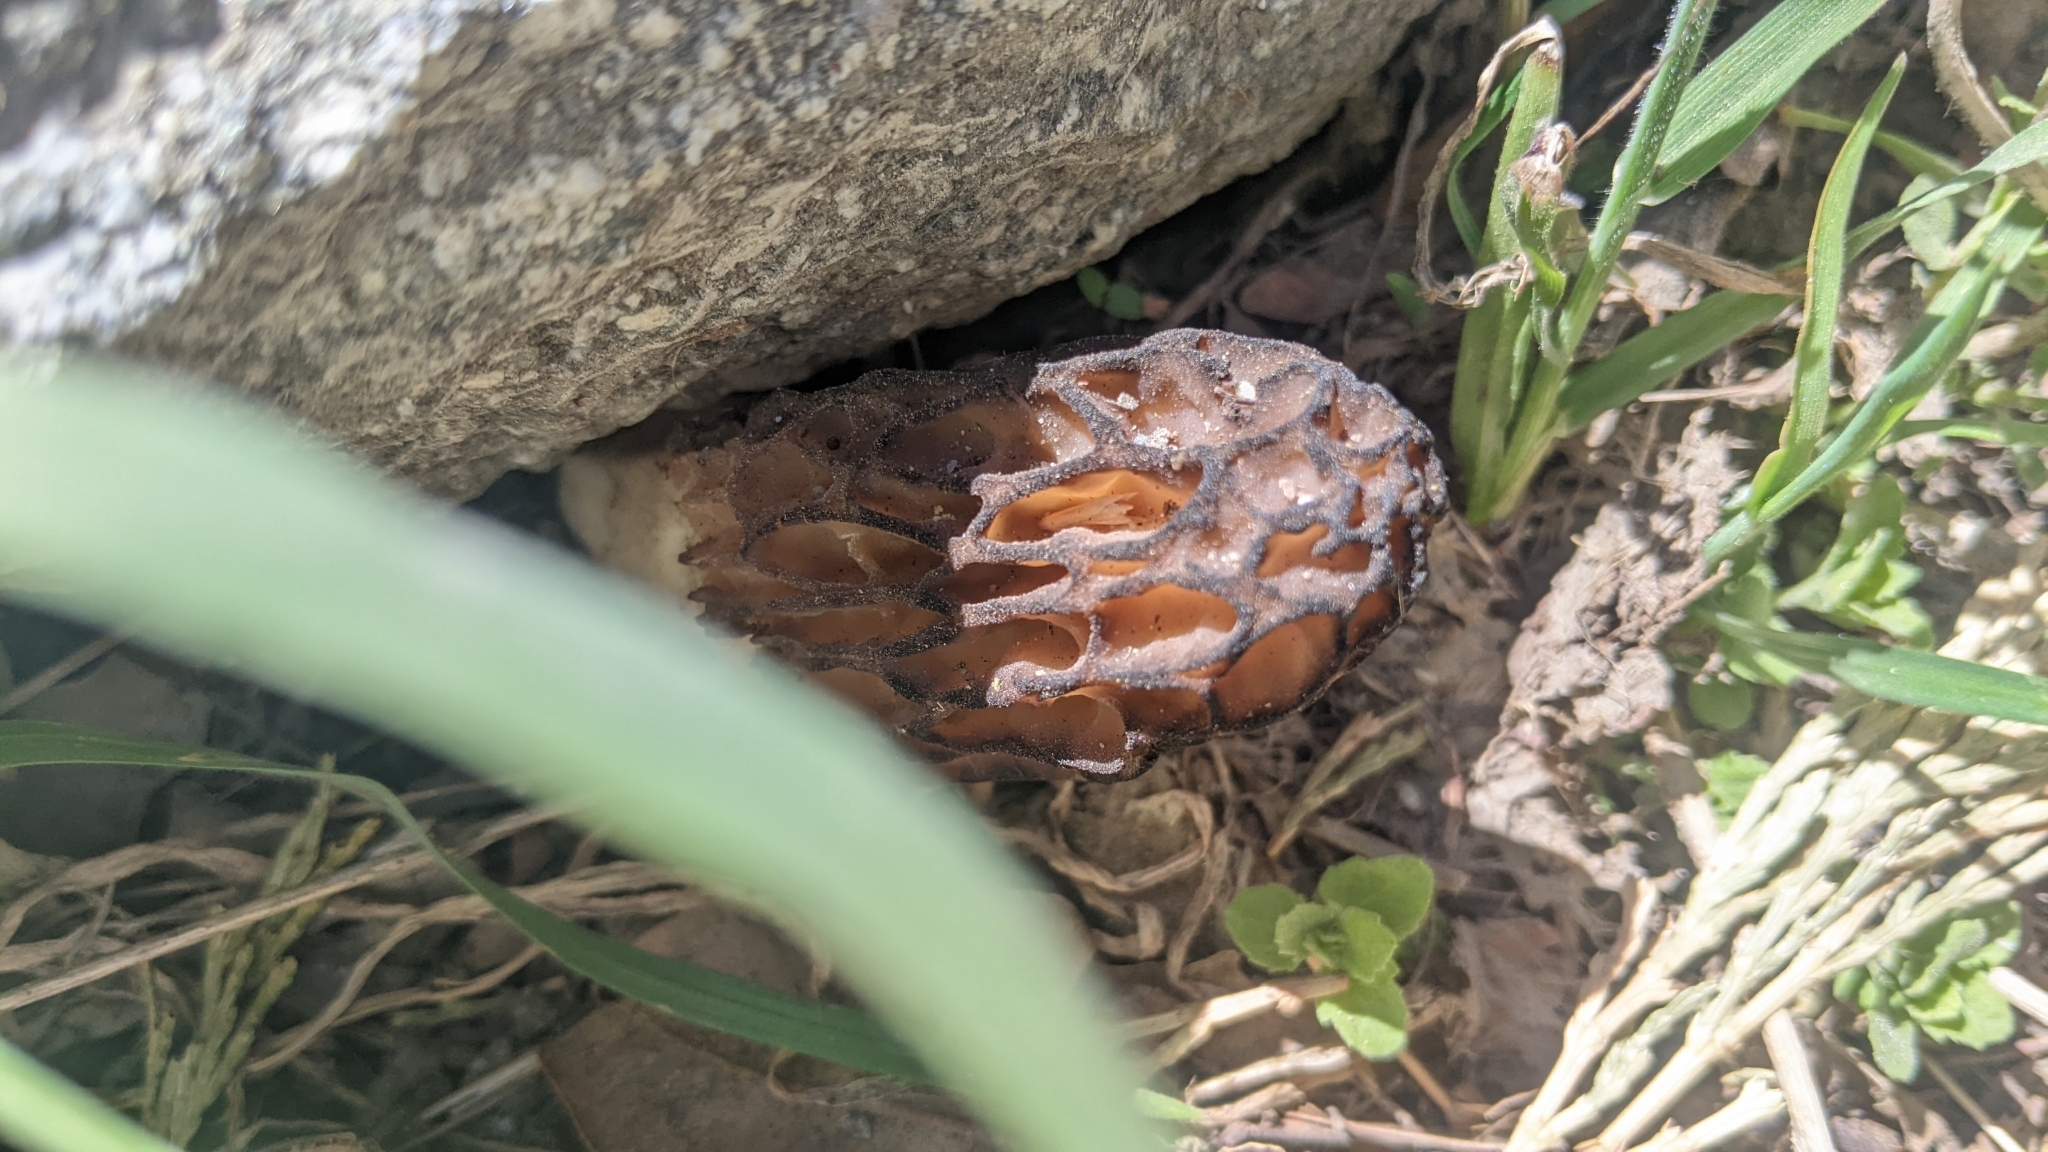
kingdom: Fungi
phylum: Ascomycota
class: Pezizomycetes
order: Pezizales
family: Morchellaceae
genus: Morchella
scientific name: Morchella
